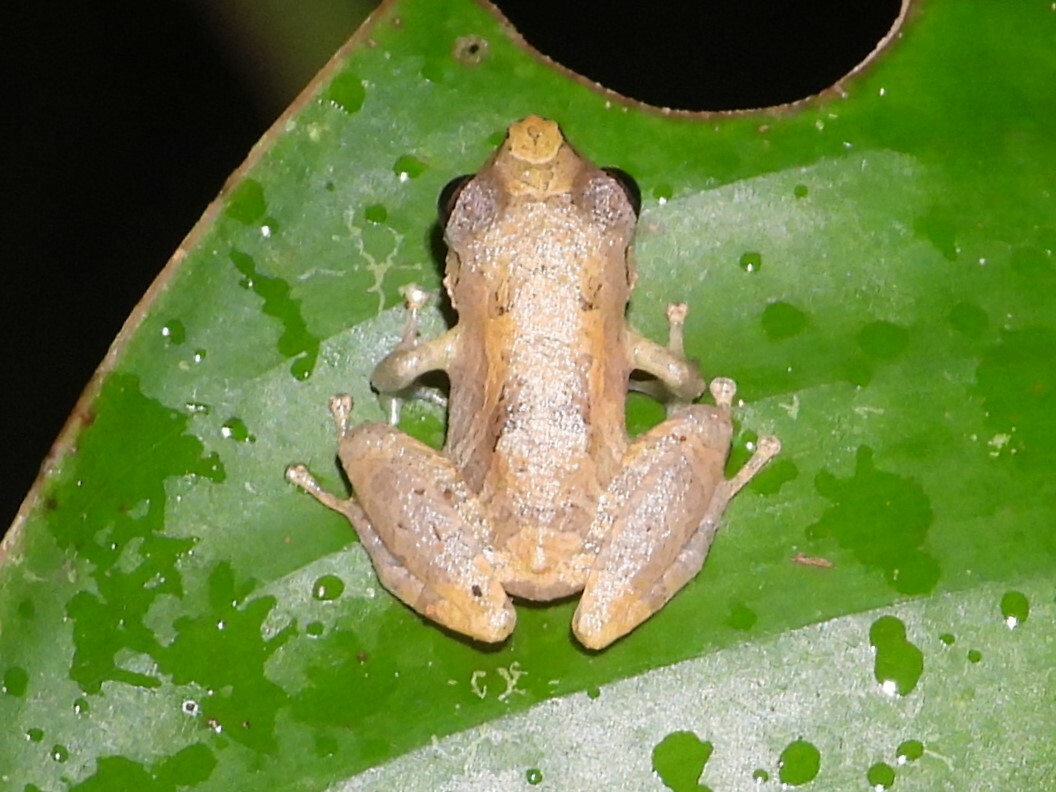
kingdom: Animalia
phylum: Chordata
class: Amphibia
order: Anura
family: Craugastoridae
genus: Pristimantis
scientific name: Pristimantis ridens
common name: Rio san juan robber frog
